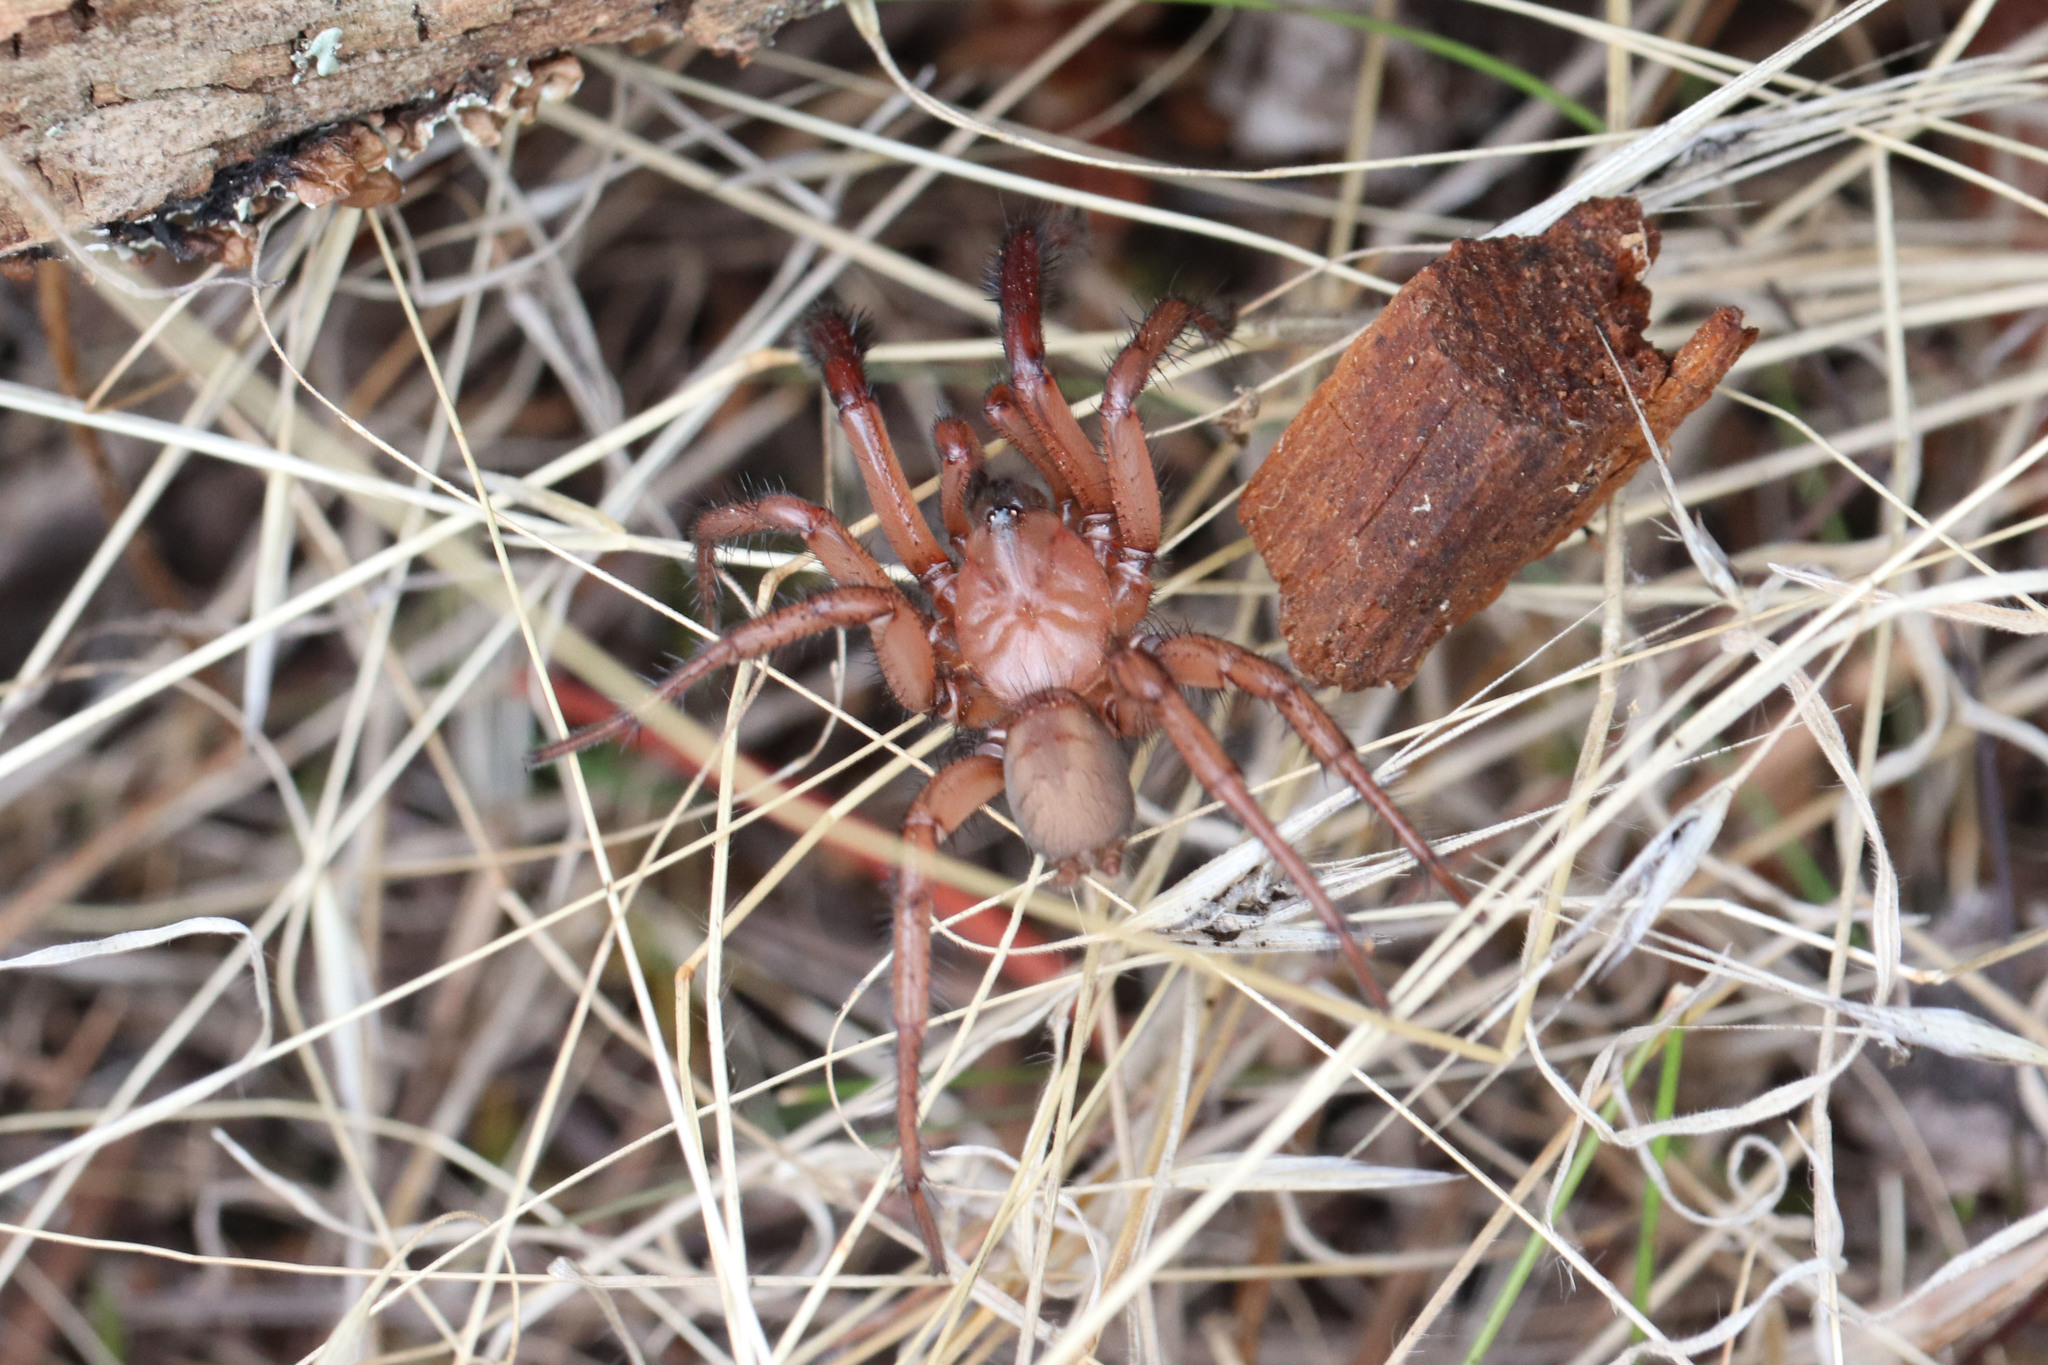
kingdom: Animalia
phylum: Arthropoda
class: Arachnida
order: Araneae
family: Antrodiaetidae
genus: Antrodiaetus
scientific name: Antrodiaetus hageni
